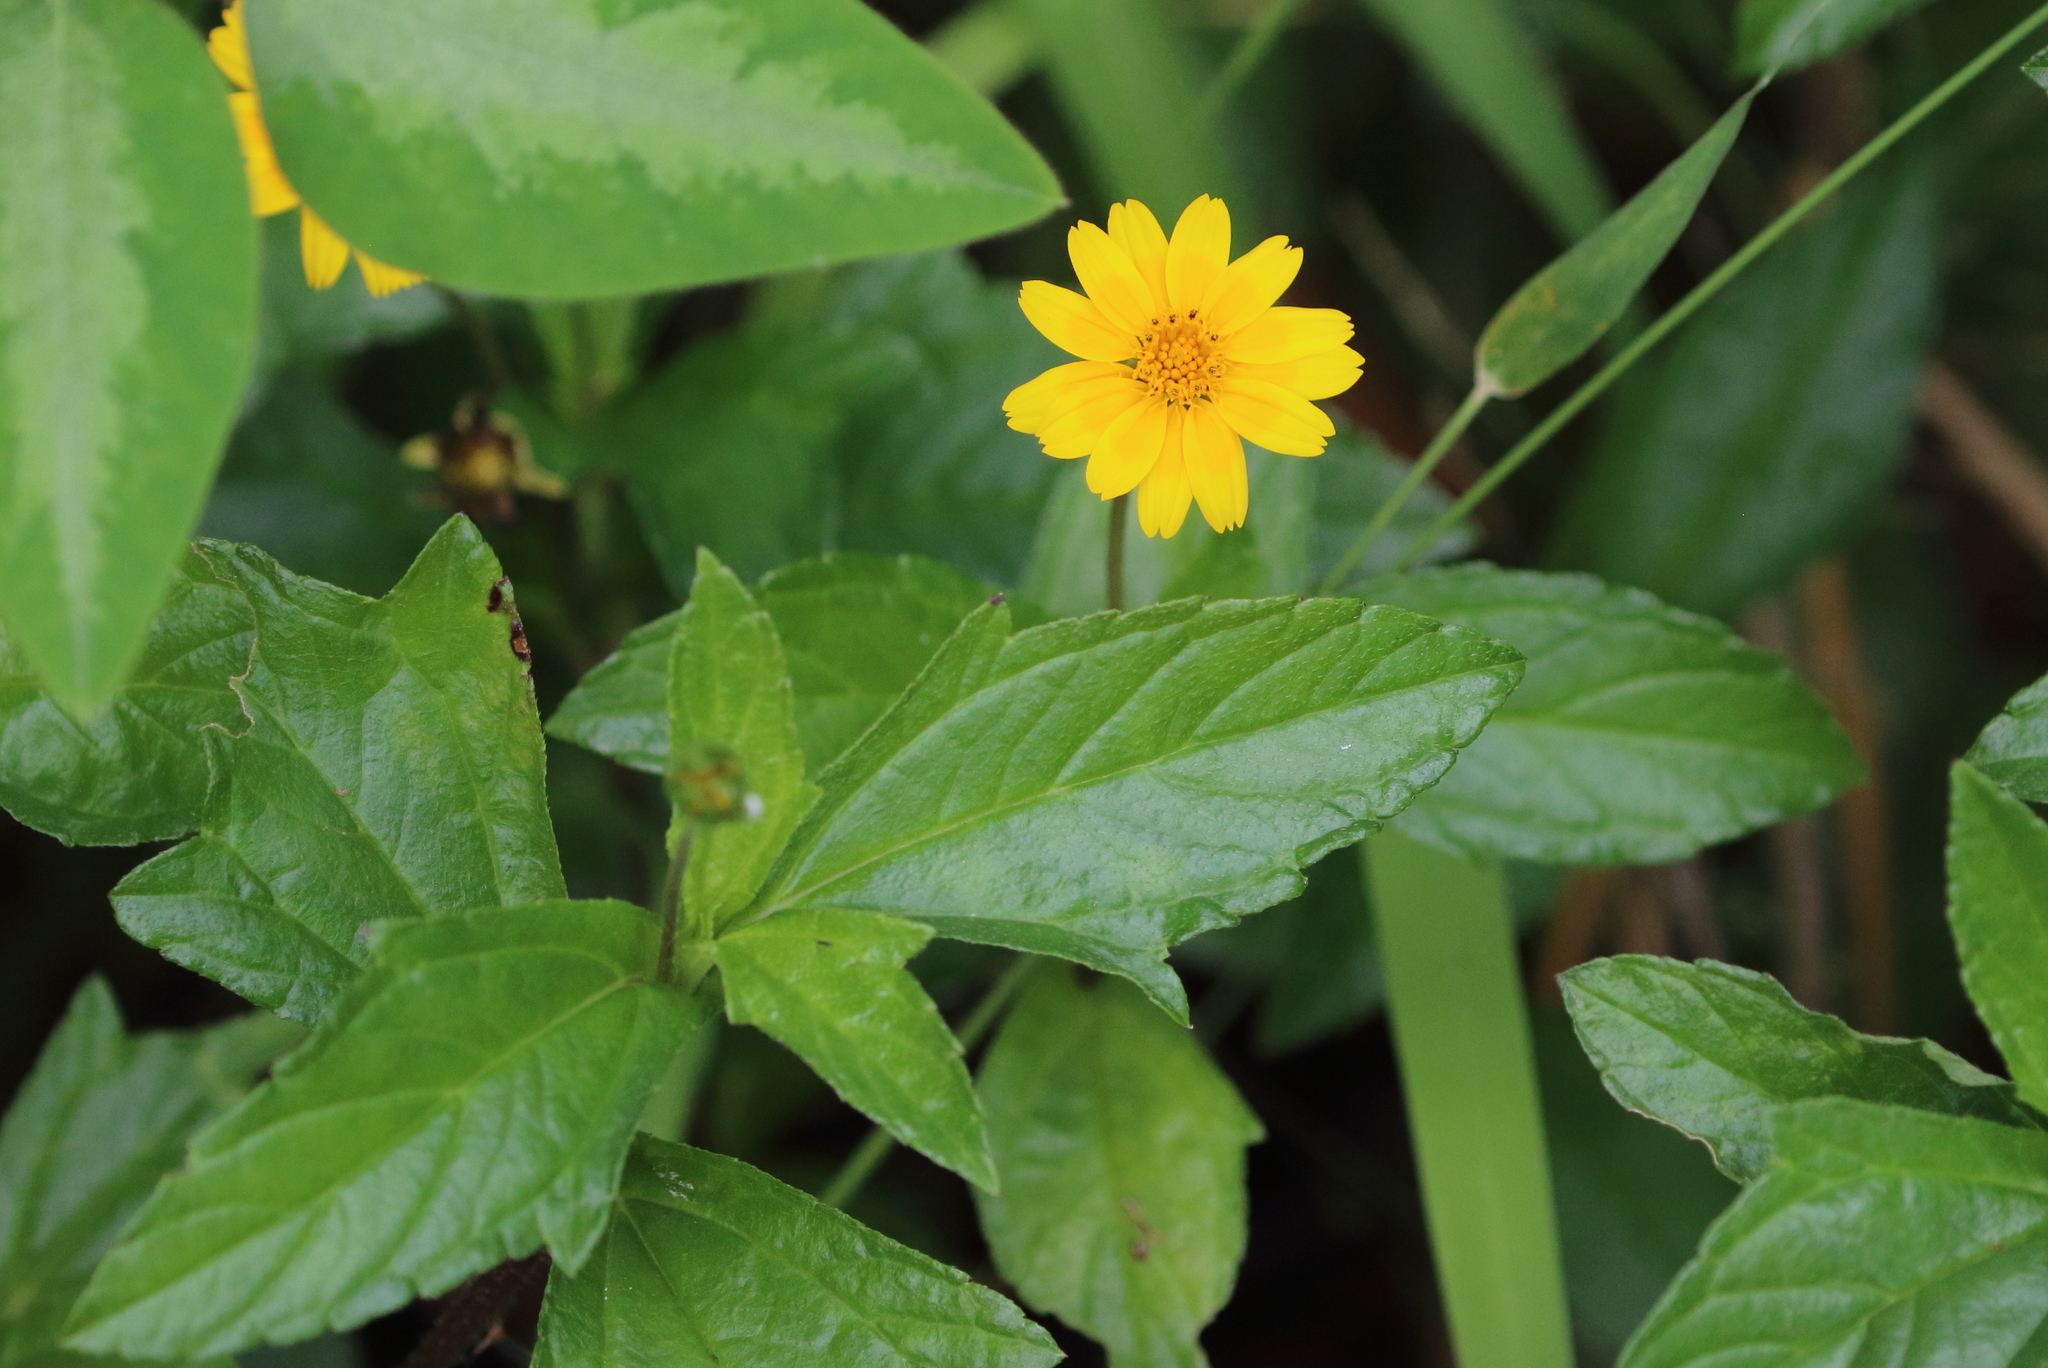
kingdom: Plantae
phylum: Tracheophyta
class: Magnoliopsida
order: Asterales
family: Asteraceae
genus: Sphagneticola
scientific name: Sphagneticola trilobata
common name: Bay biscayne creeping-oxeye
